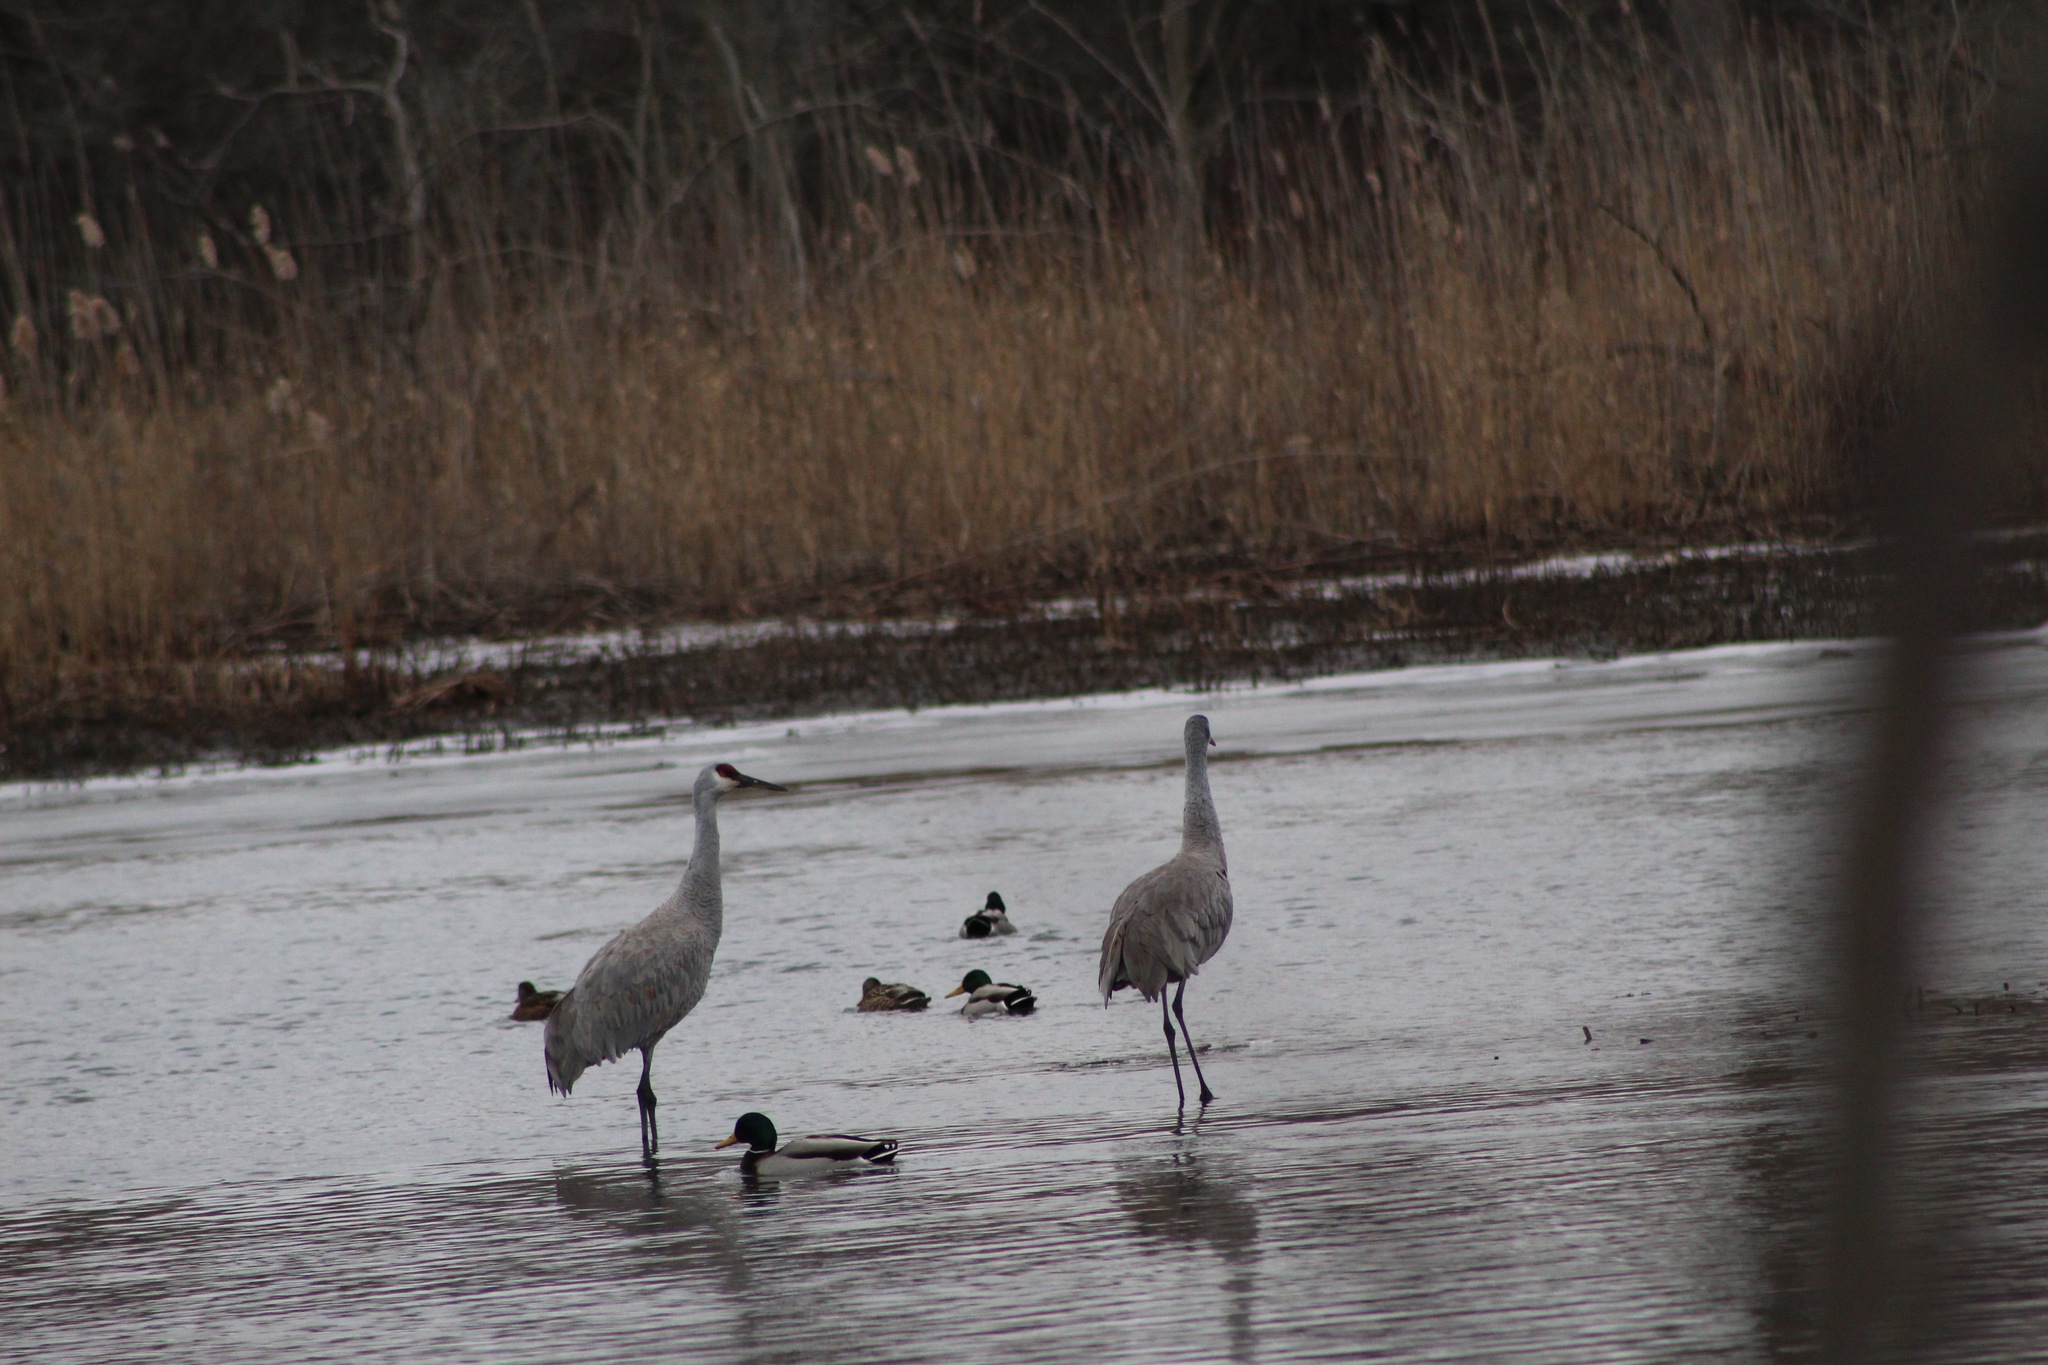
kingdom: Animalia
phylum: Chordata
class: Aves
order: Gruiformes
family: Gruidae
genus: Grus
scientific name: Grus canadensis
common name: Sandhill crane
